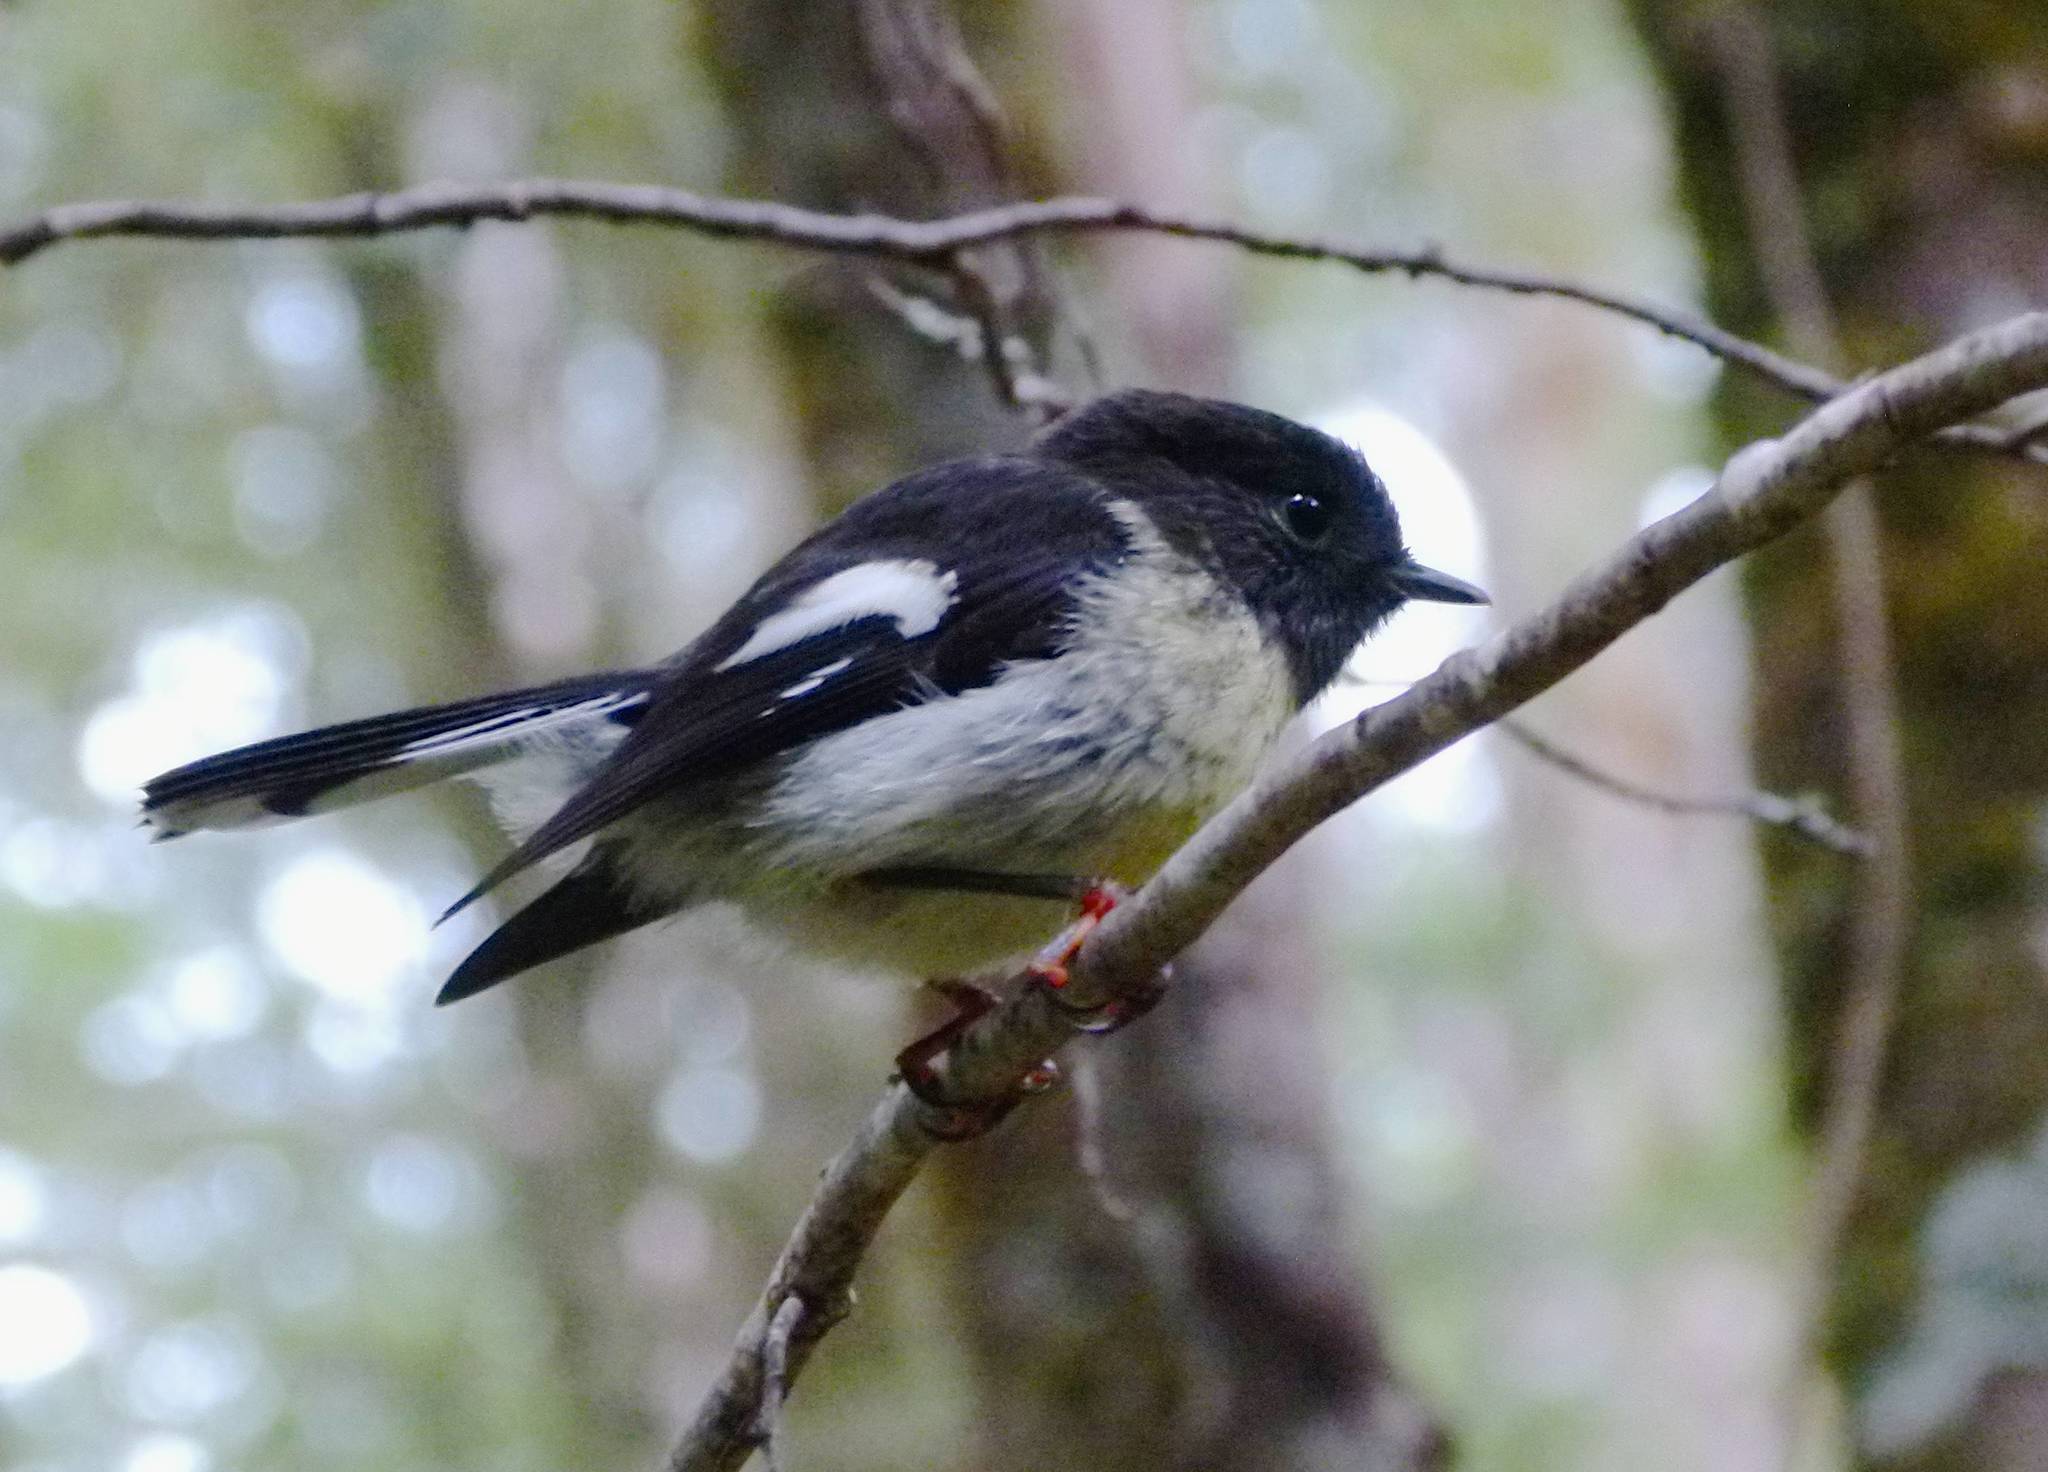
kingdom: Animalia
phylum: Chordata
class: Aves
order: Passeriformes
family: Petroicidae
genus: Petroica
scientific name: Petroica macrocephala
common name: Tomtit
